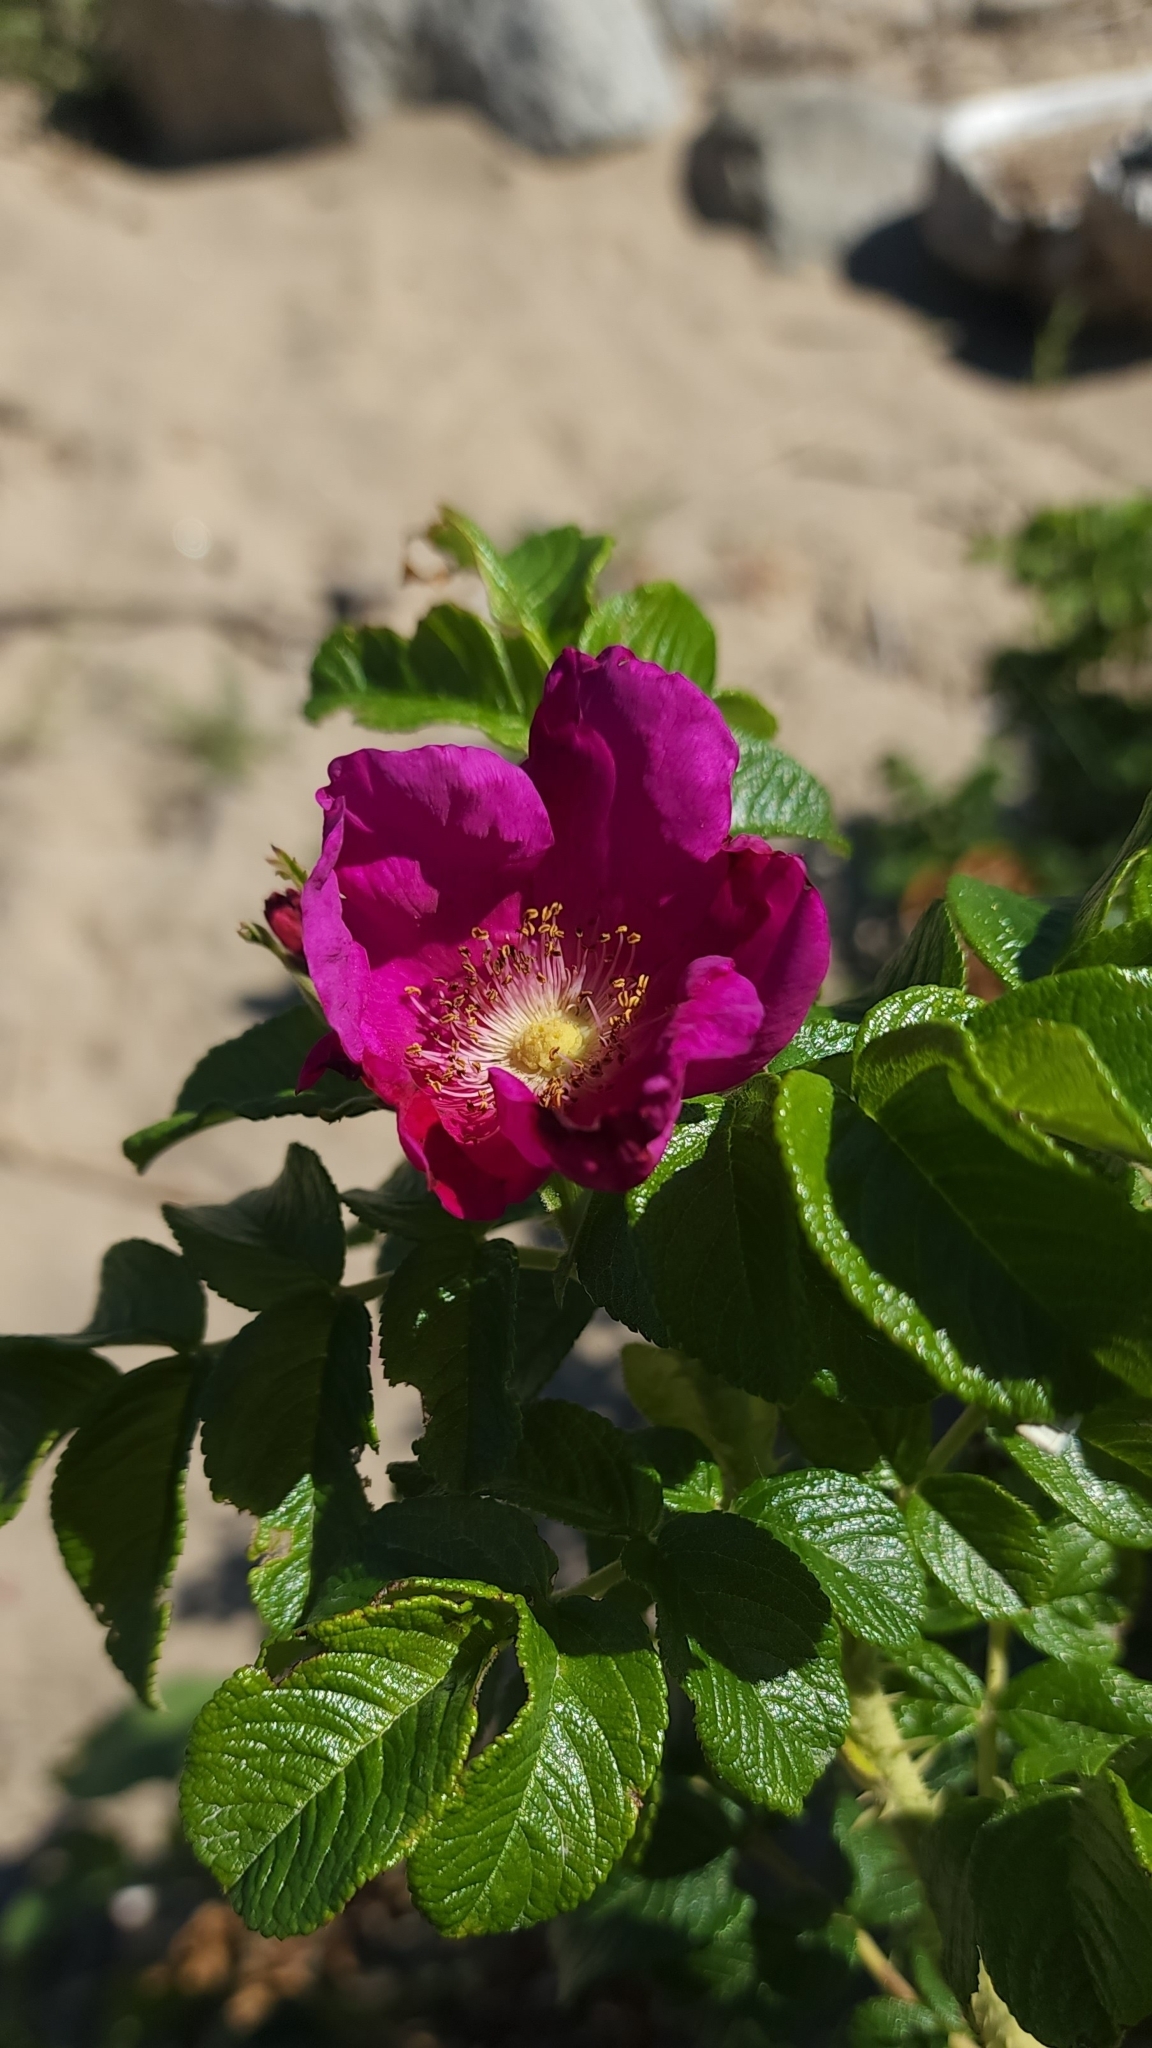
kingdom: Plantae
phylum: Tracheophyta
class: Magnoliopsida
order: Rosales
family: Rosaceae
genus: Rosa
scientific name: Rosa rugosa
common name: Japanese rose
